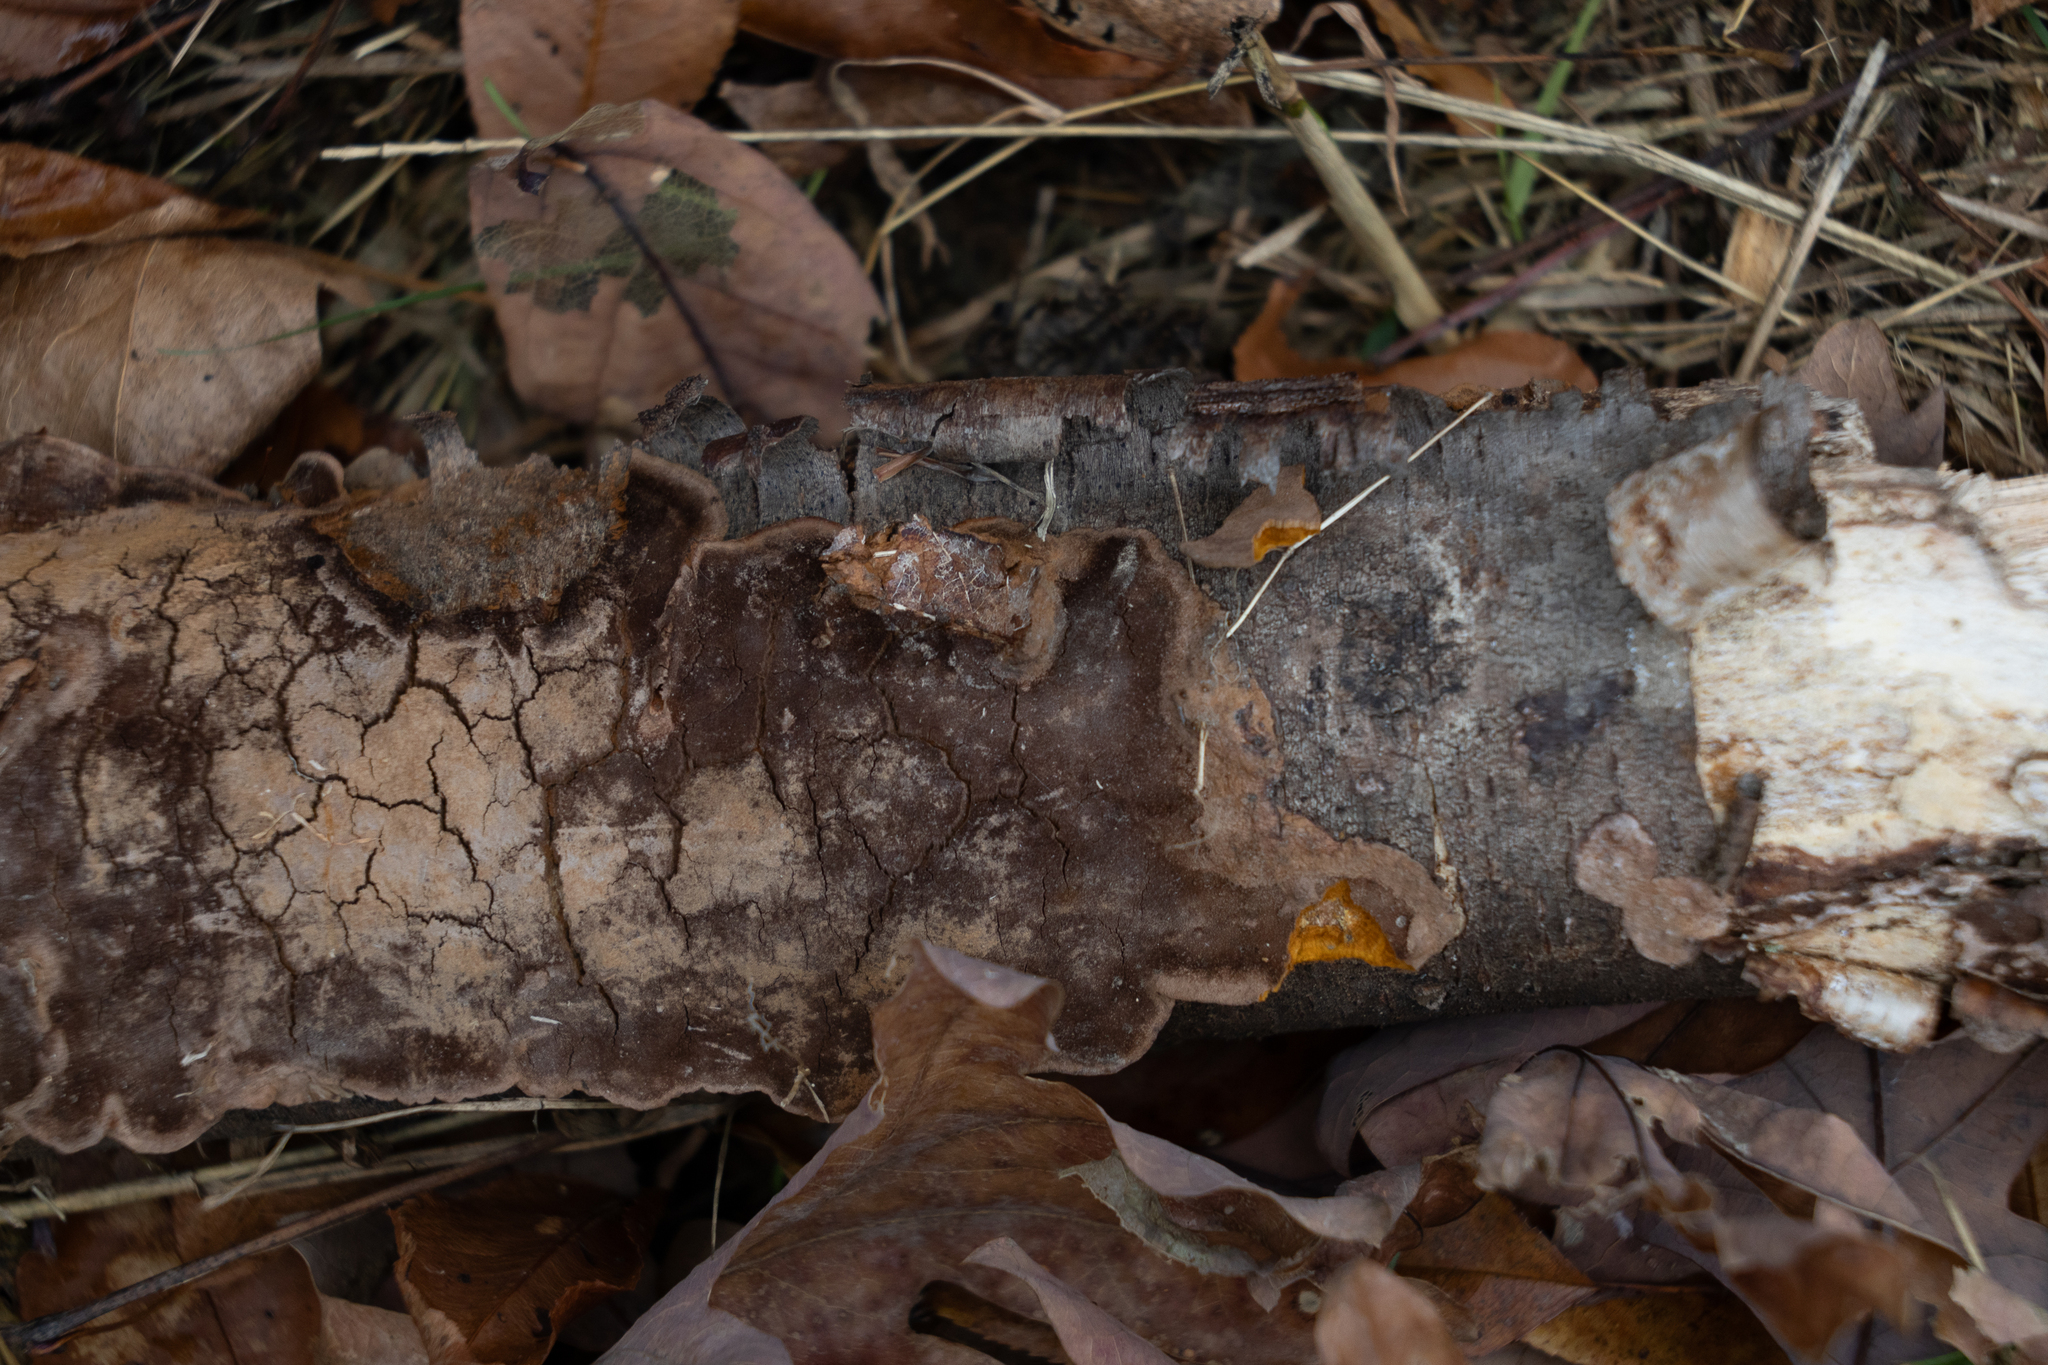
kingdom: Fungi
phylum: Basidiomycota
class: Agaricomycetes
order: Hymenochaetales
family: Hymenochaetaceae
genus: Fomitiporia
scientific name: Fomitiporia punctata
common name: Elbowpatch crust
